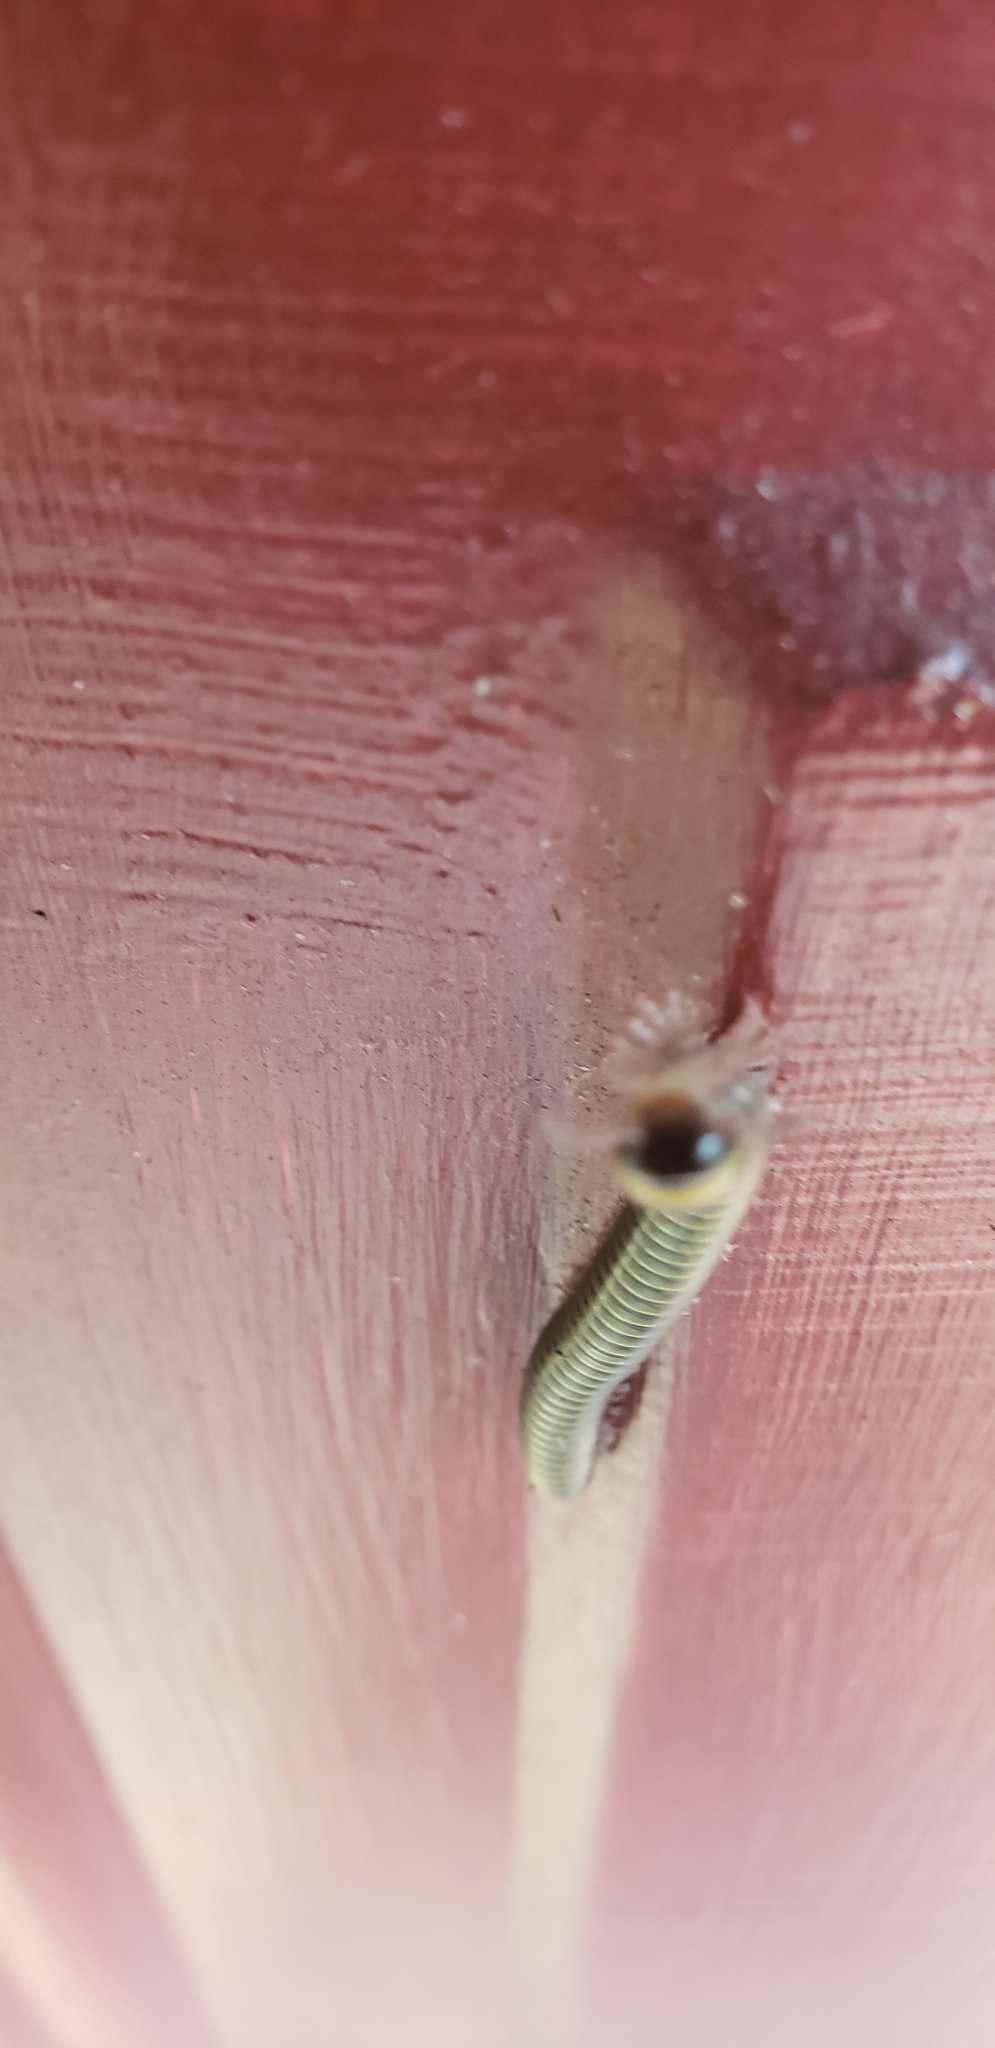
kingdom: Animalia
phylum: Arthropoda
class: Diplopoda
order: Spirobolida
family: Rhinocricidae
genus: Anadenobolus
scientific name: Anadenobolus monilicornis
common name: Caribbean millipede
